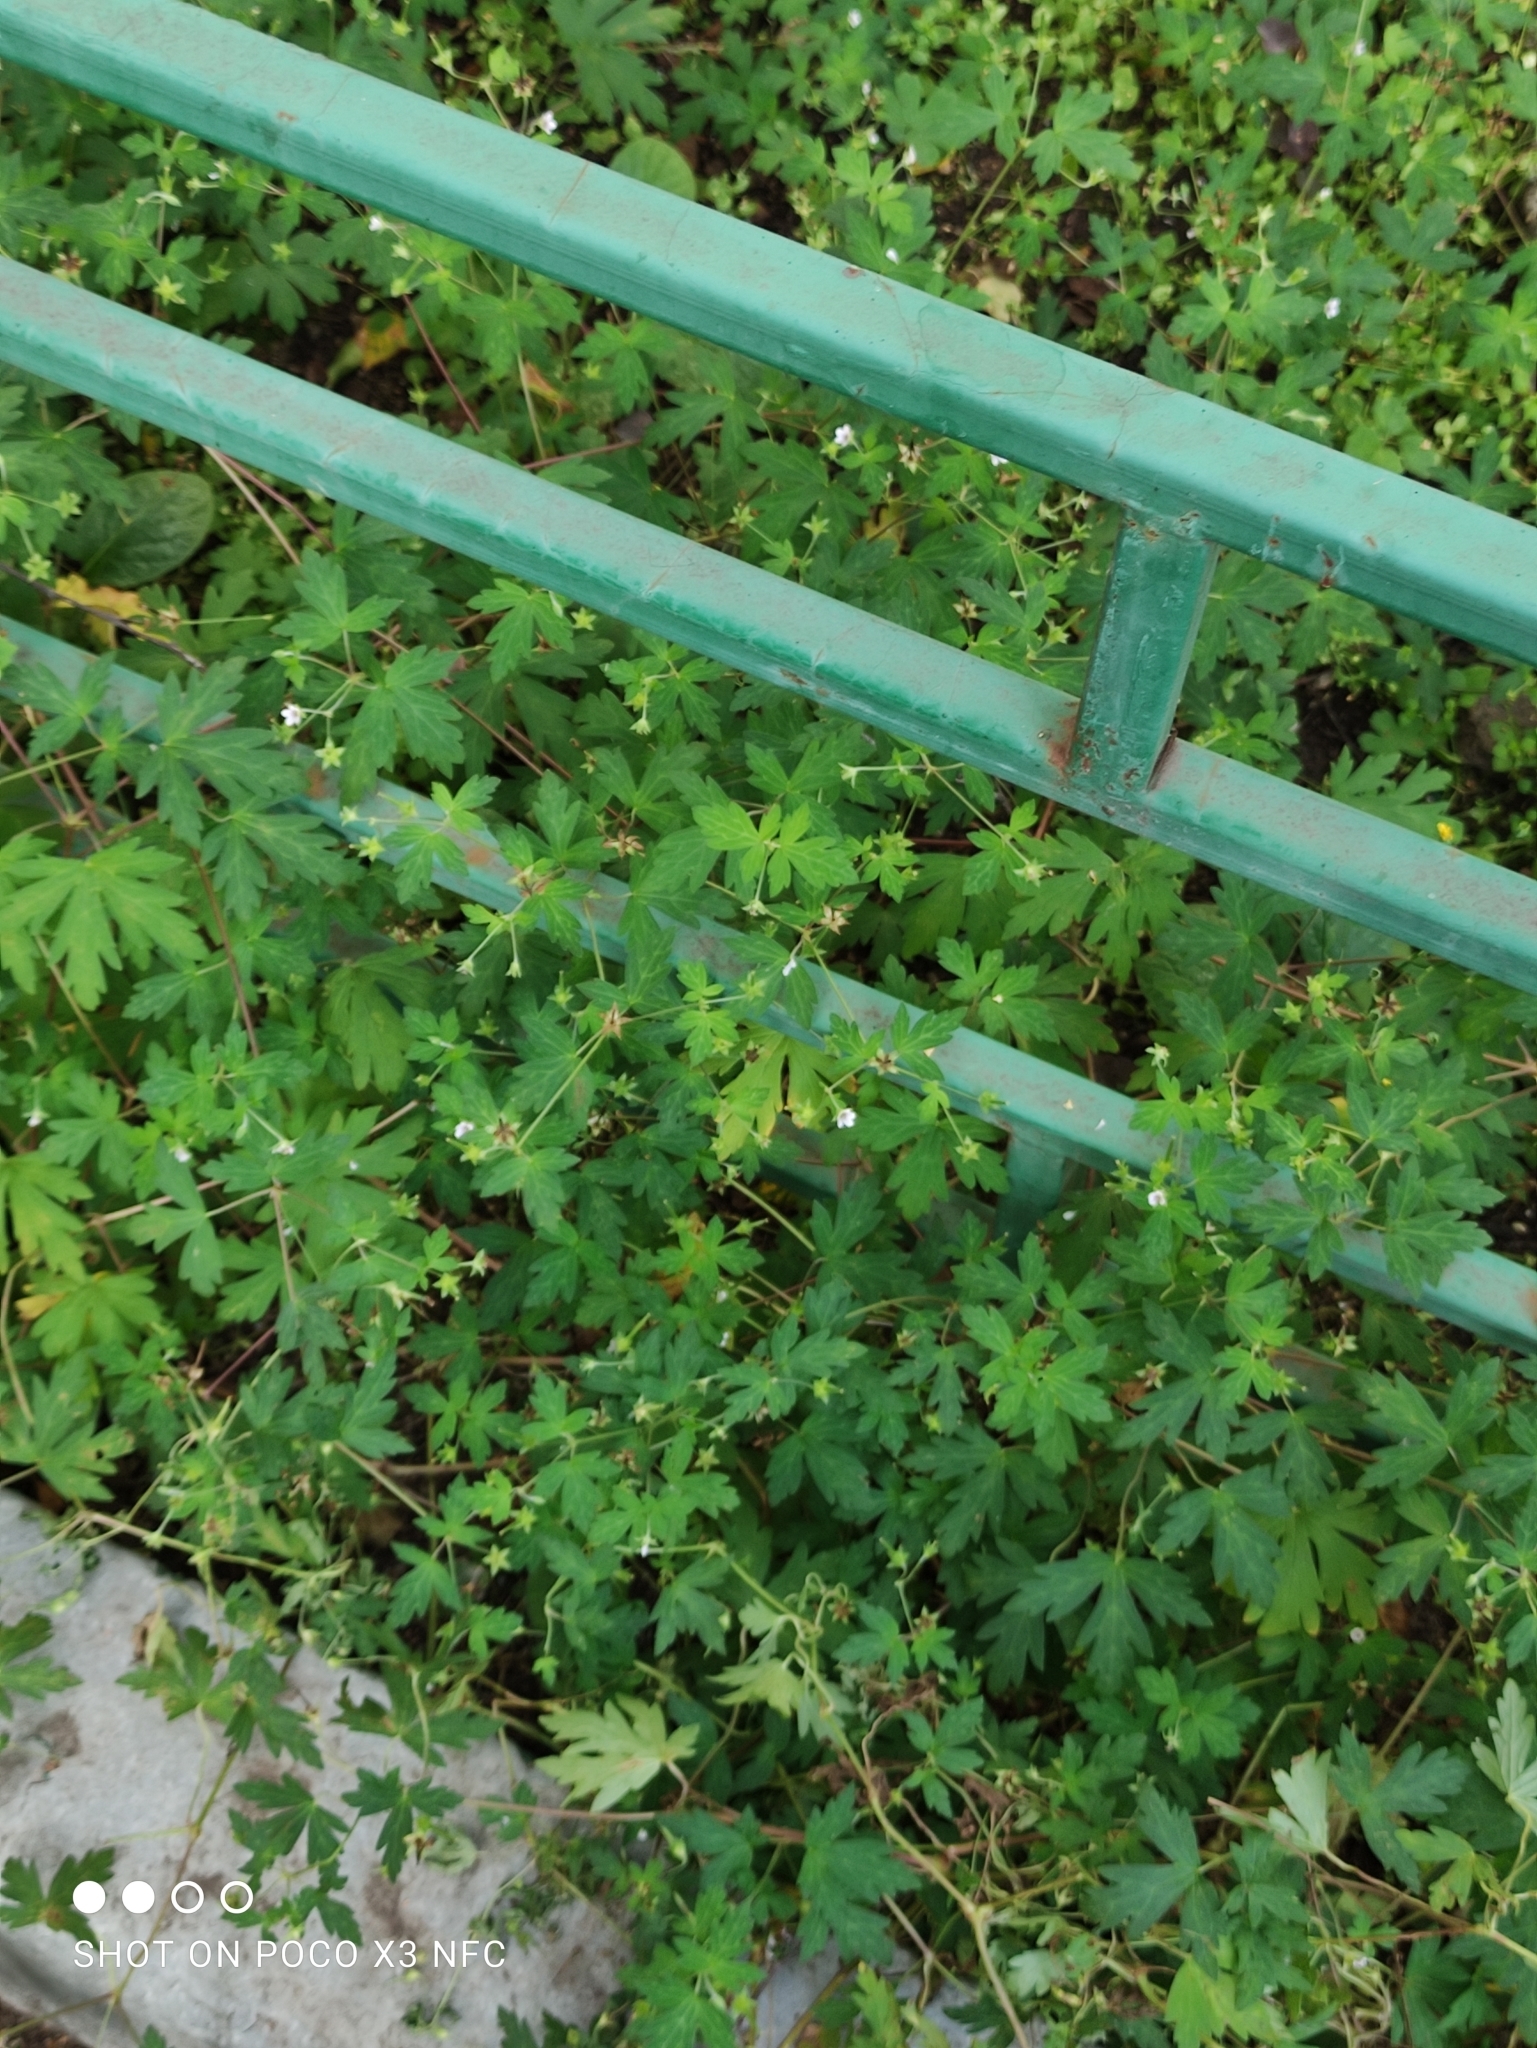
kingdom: Plantae
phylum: Tracheophyta
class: Magnoliopsida
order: Geraniales
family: Geraniaceae
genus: Geranium
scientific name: Geranium sibiricum
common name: Siberian crane's-bill
